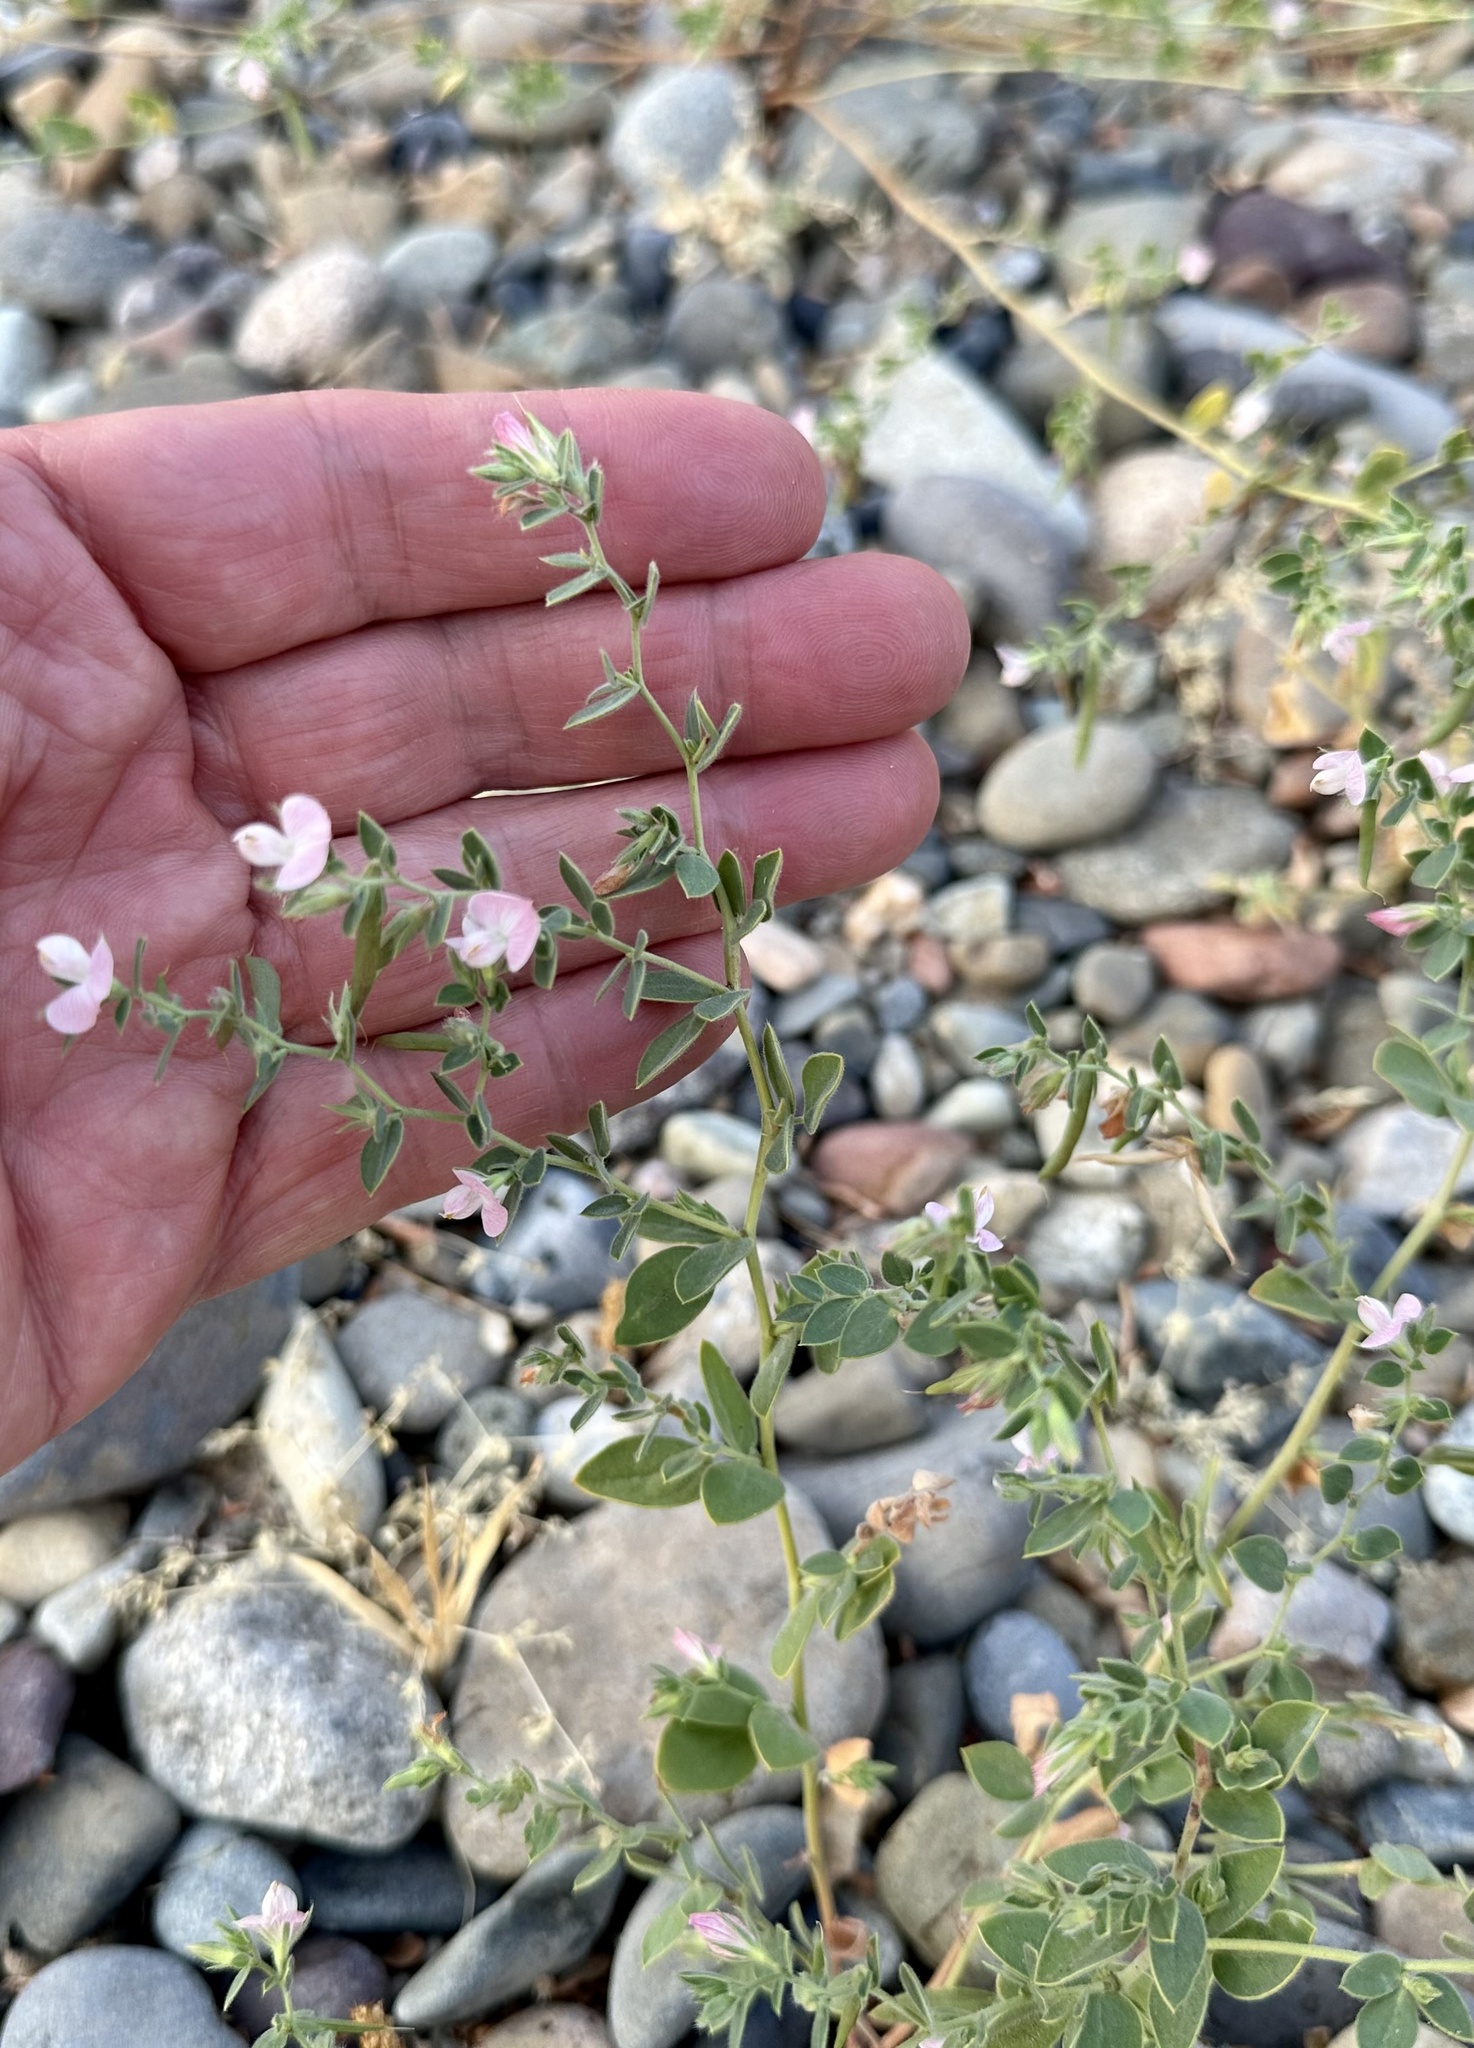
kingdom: Plantae
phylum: Tracheophyta
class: Magnoliopsida
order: Fabales
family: Fabaceae
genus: Acmispon
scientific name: Acmispon americanus
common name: American bird's-foot trefoil
